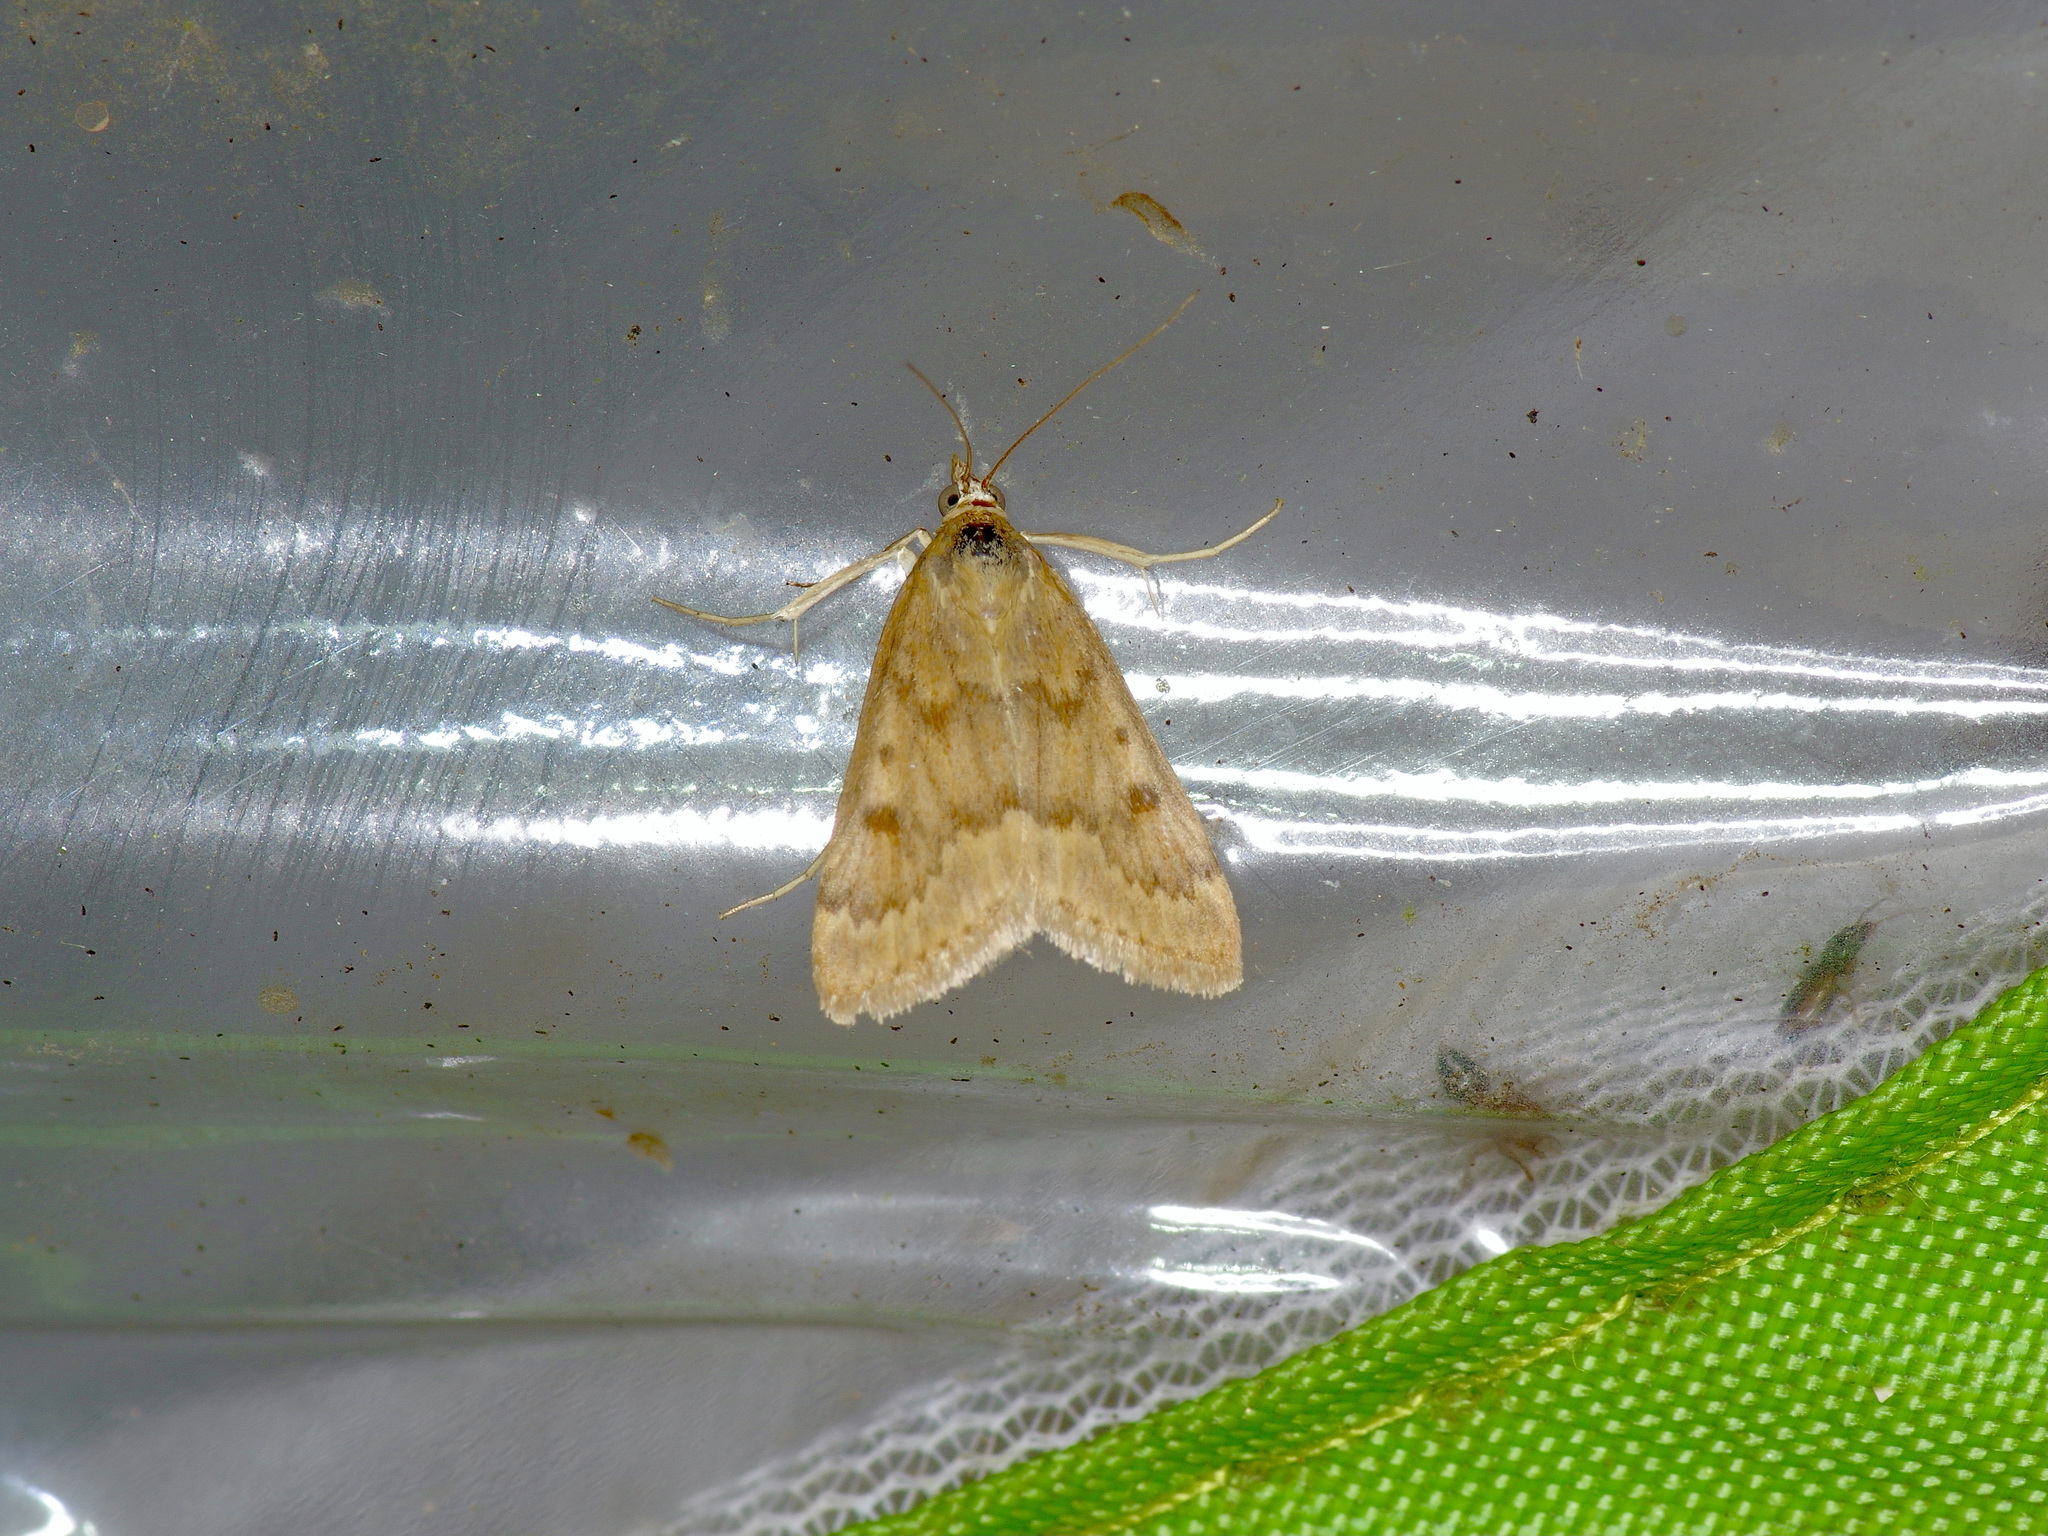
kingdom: Animalia
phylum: Arthropoda
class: Insecta
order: Lepidoptera
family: Crambidae
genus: Achyra
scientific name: Achyra rantalis
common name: Garden webworm
